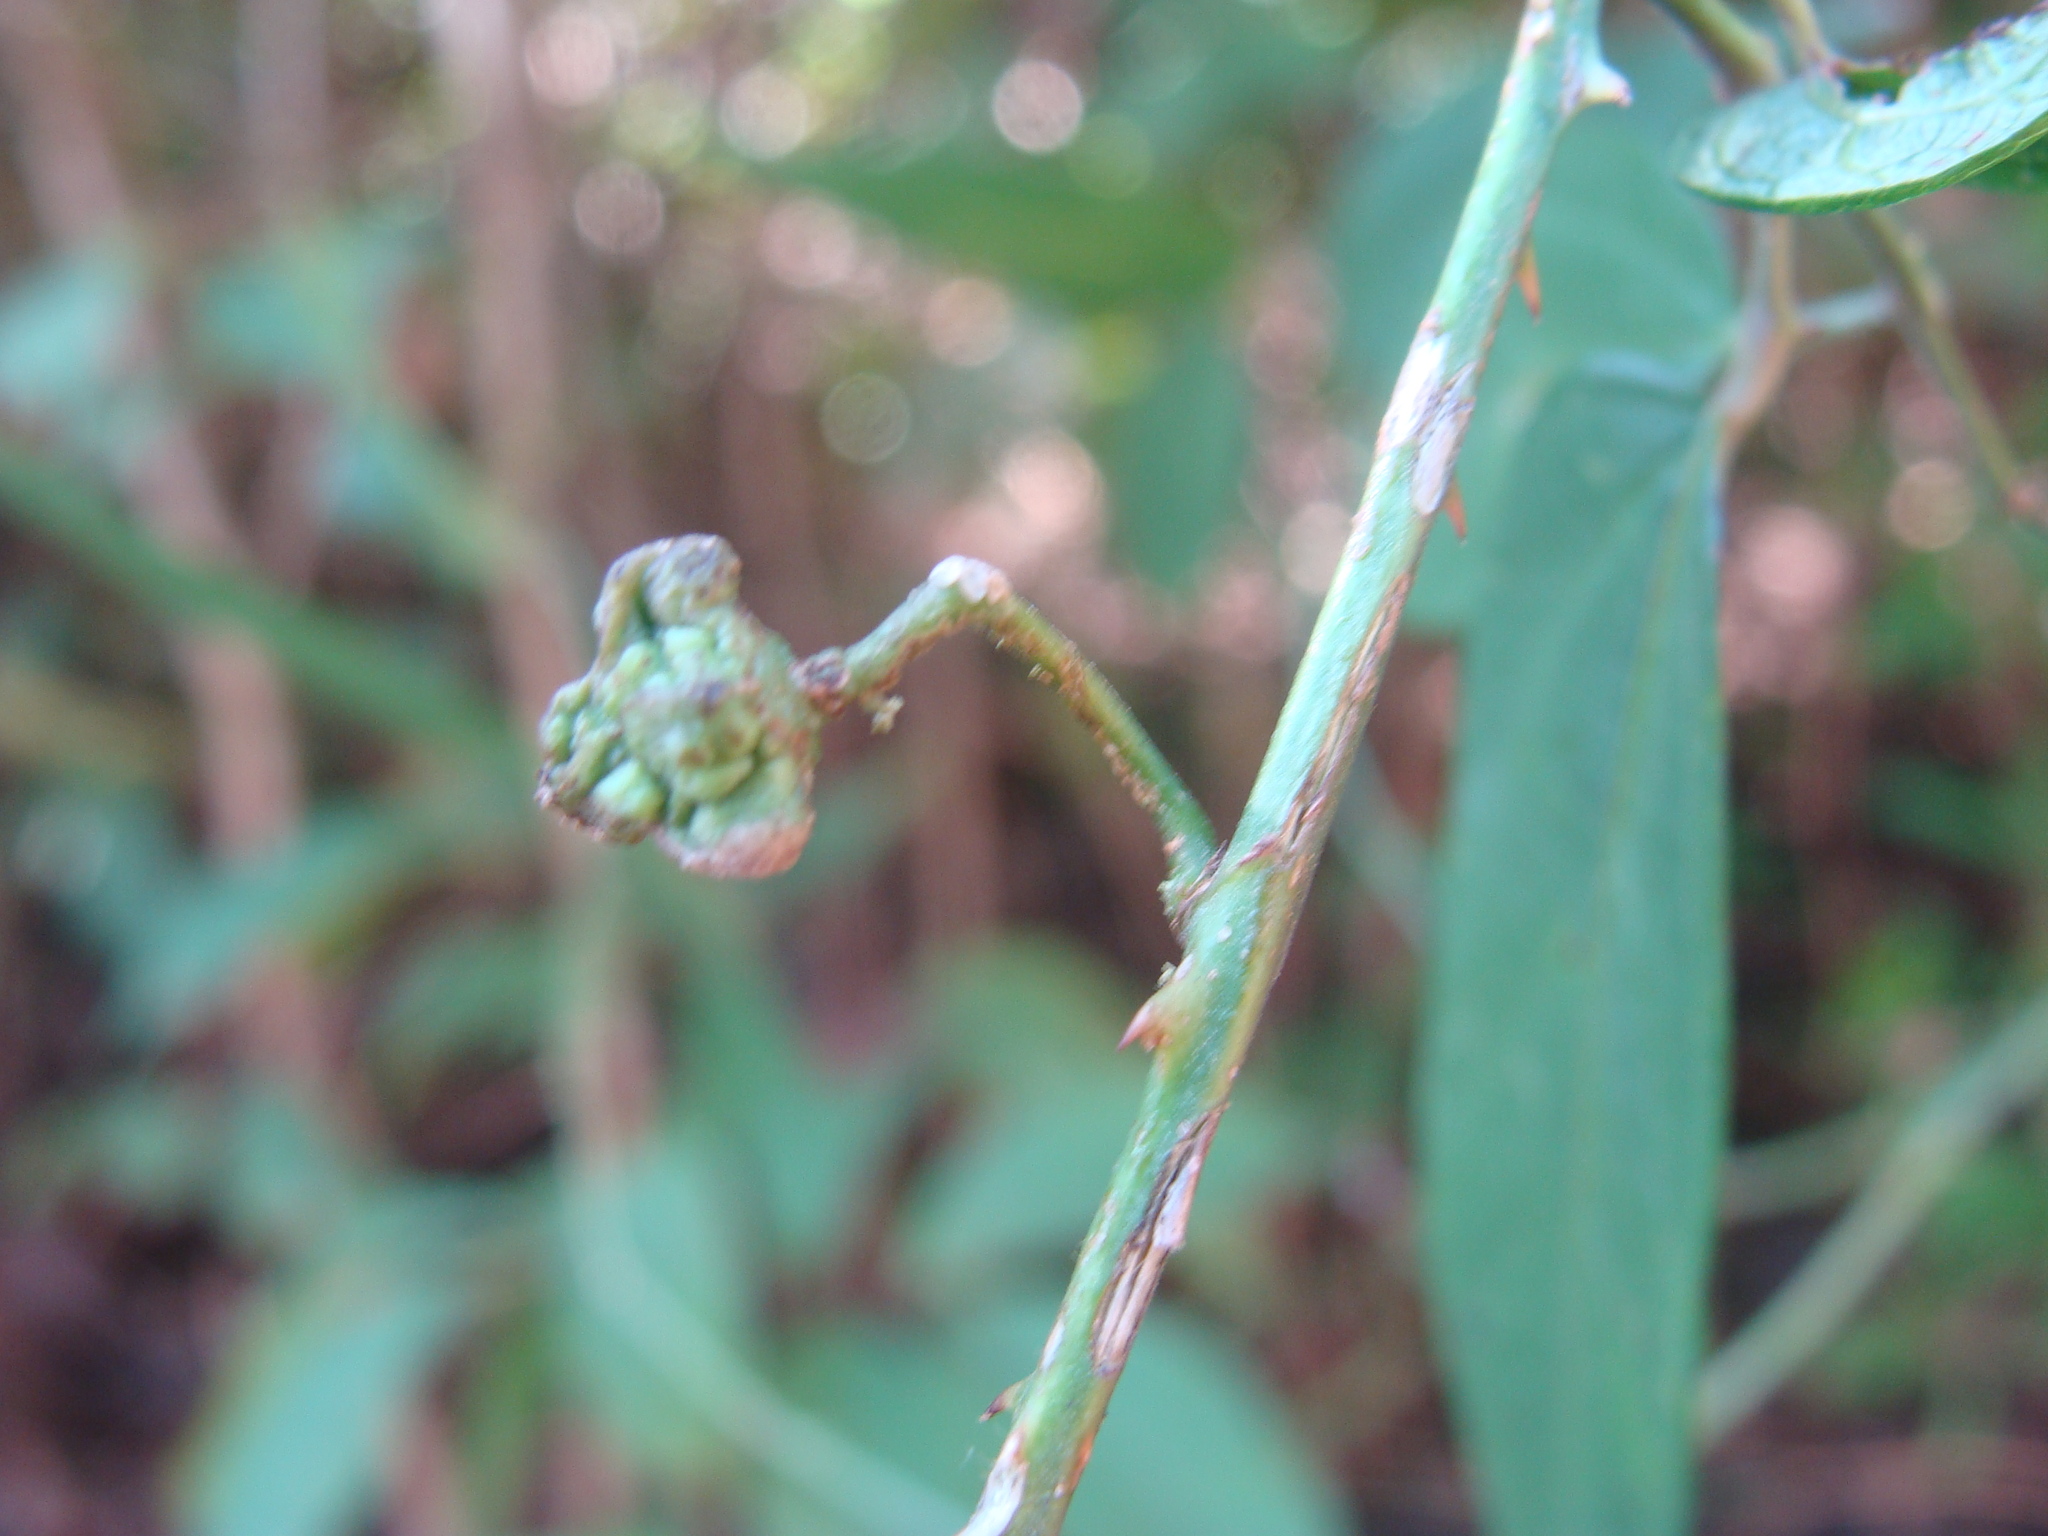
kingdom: Plantae
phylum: Tracheophyta
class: Magnoliopsida
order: Malvales
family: Malvaceae
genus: Byttneria
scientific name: Byttneria aculeata
